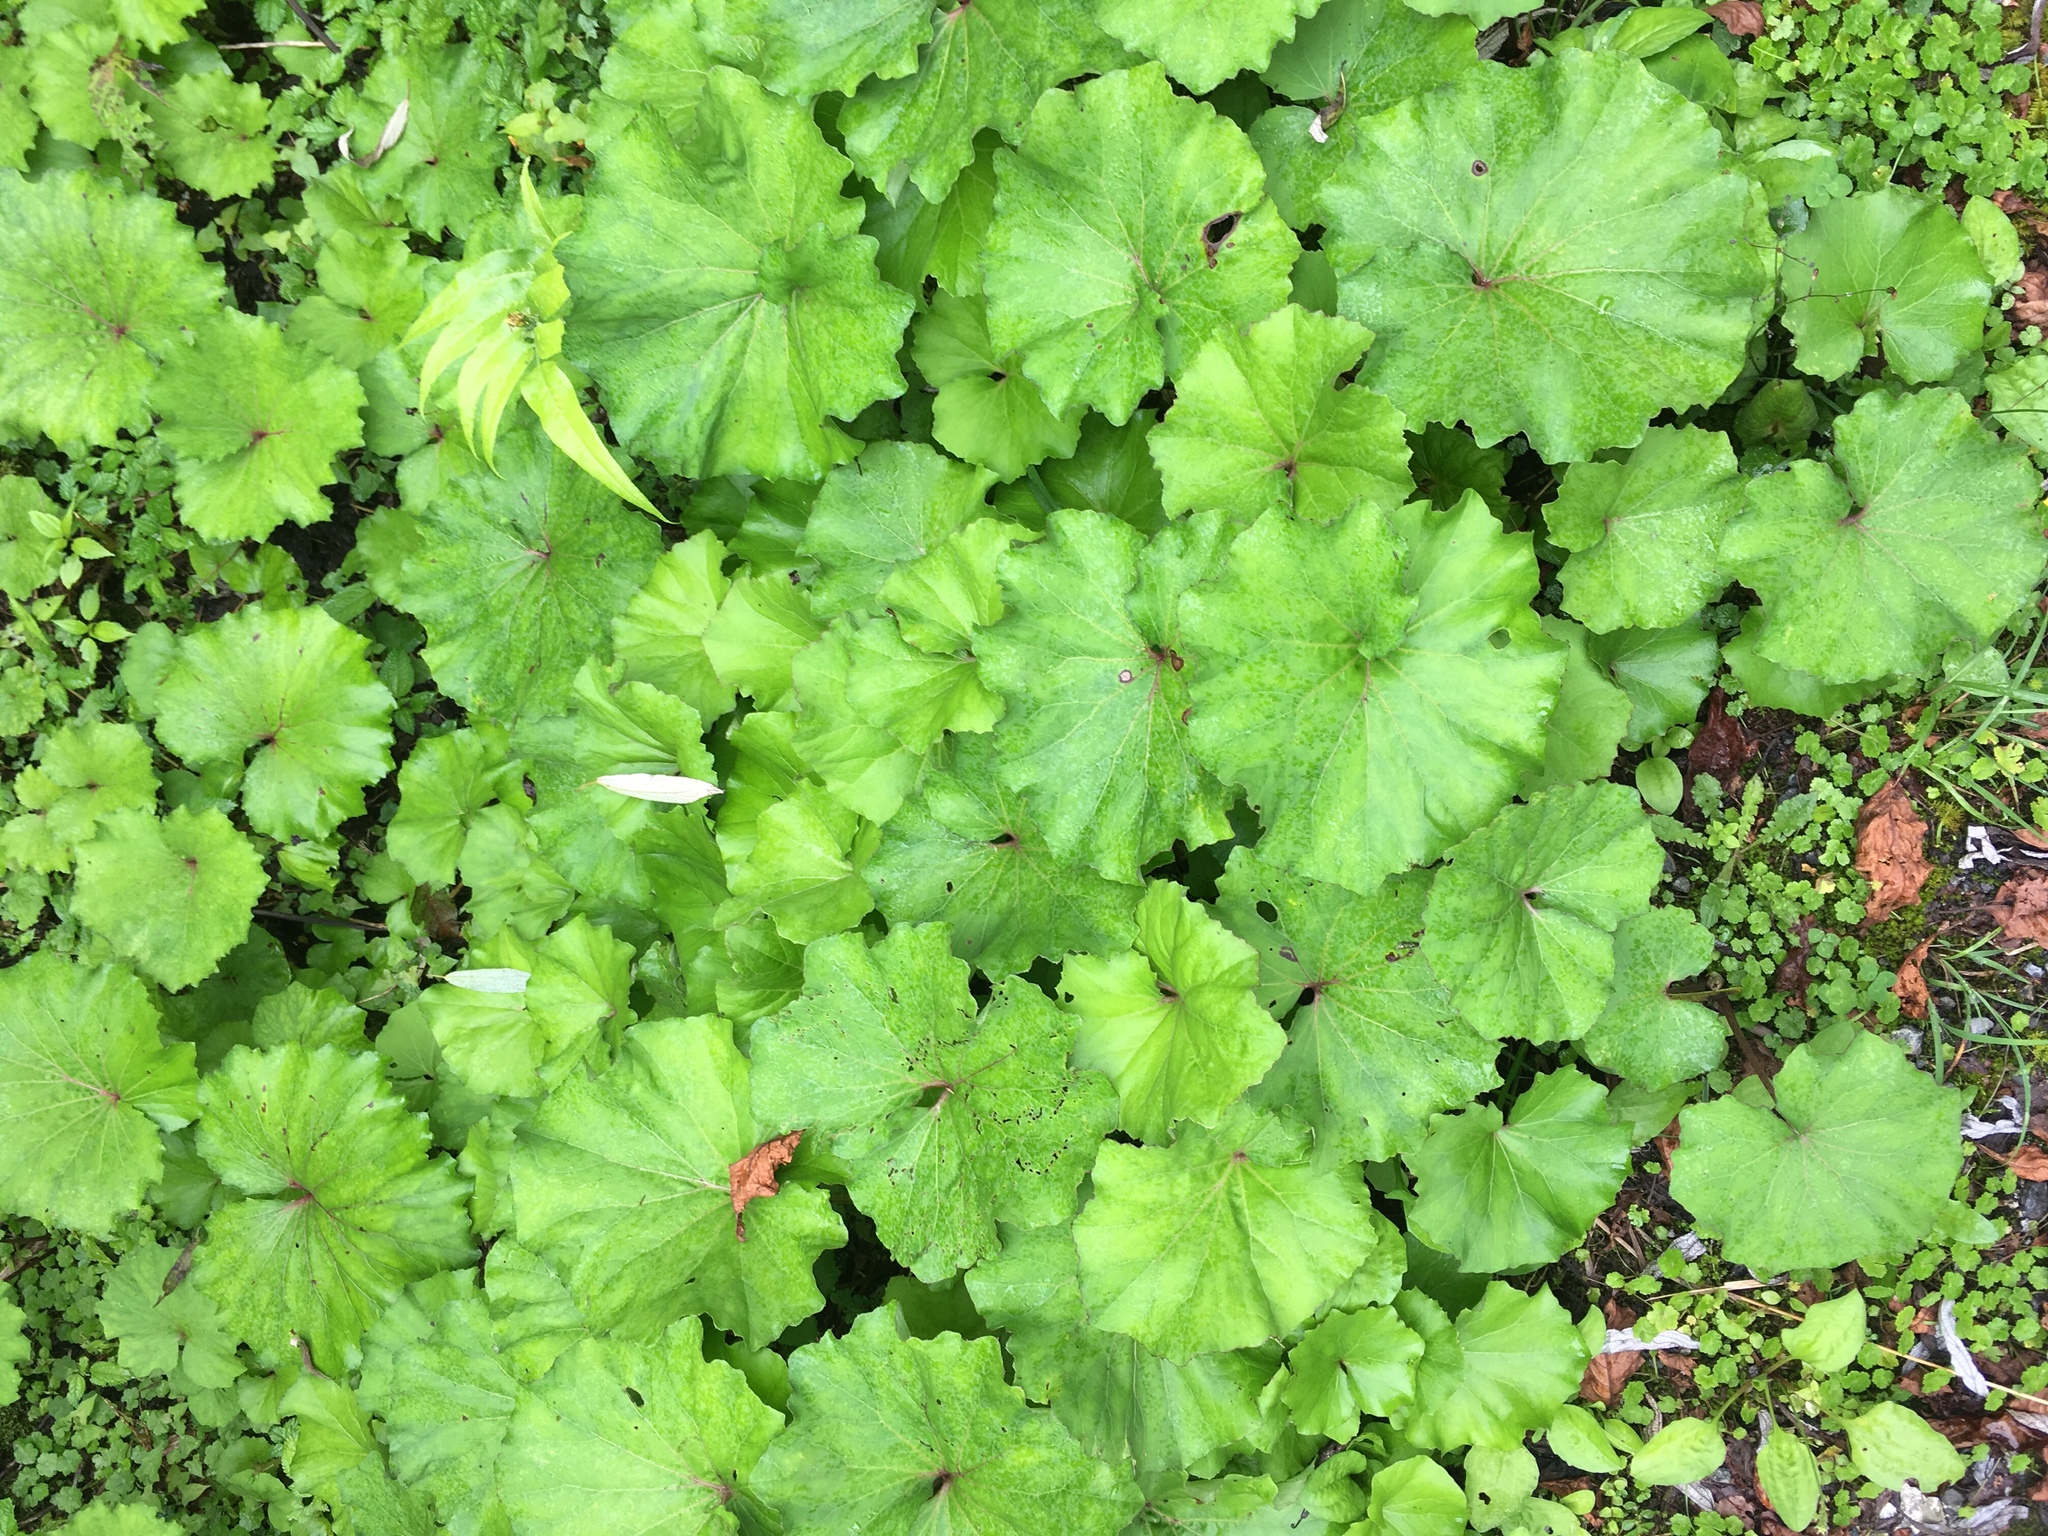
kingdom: Plantae
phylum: Tracheophyta
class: Magnoliopsida
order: Asterales
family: Asteraceae
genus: Petasites
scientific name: Petasites formosanus
